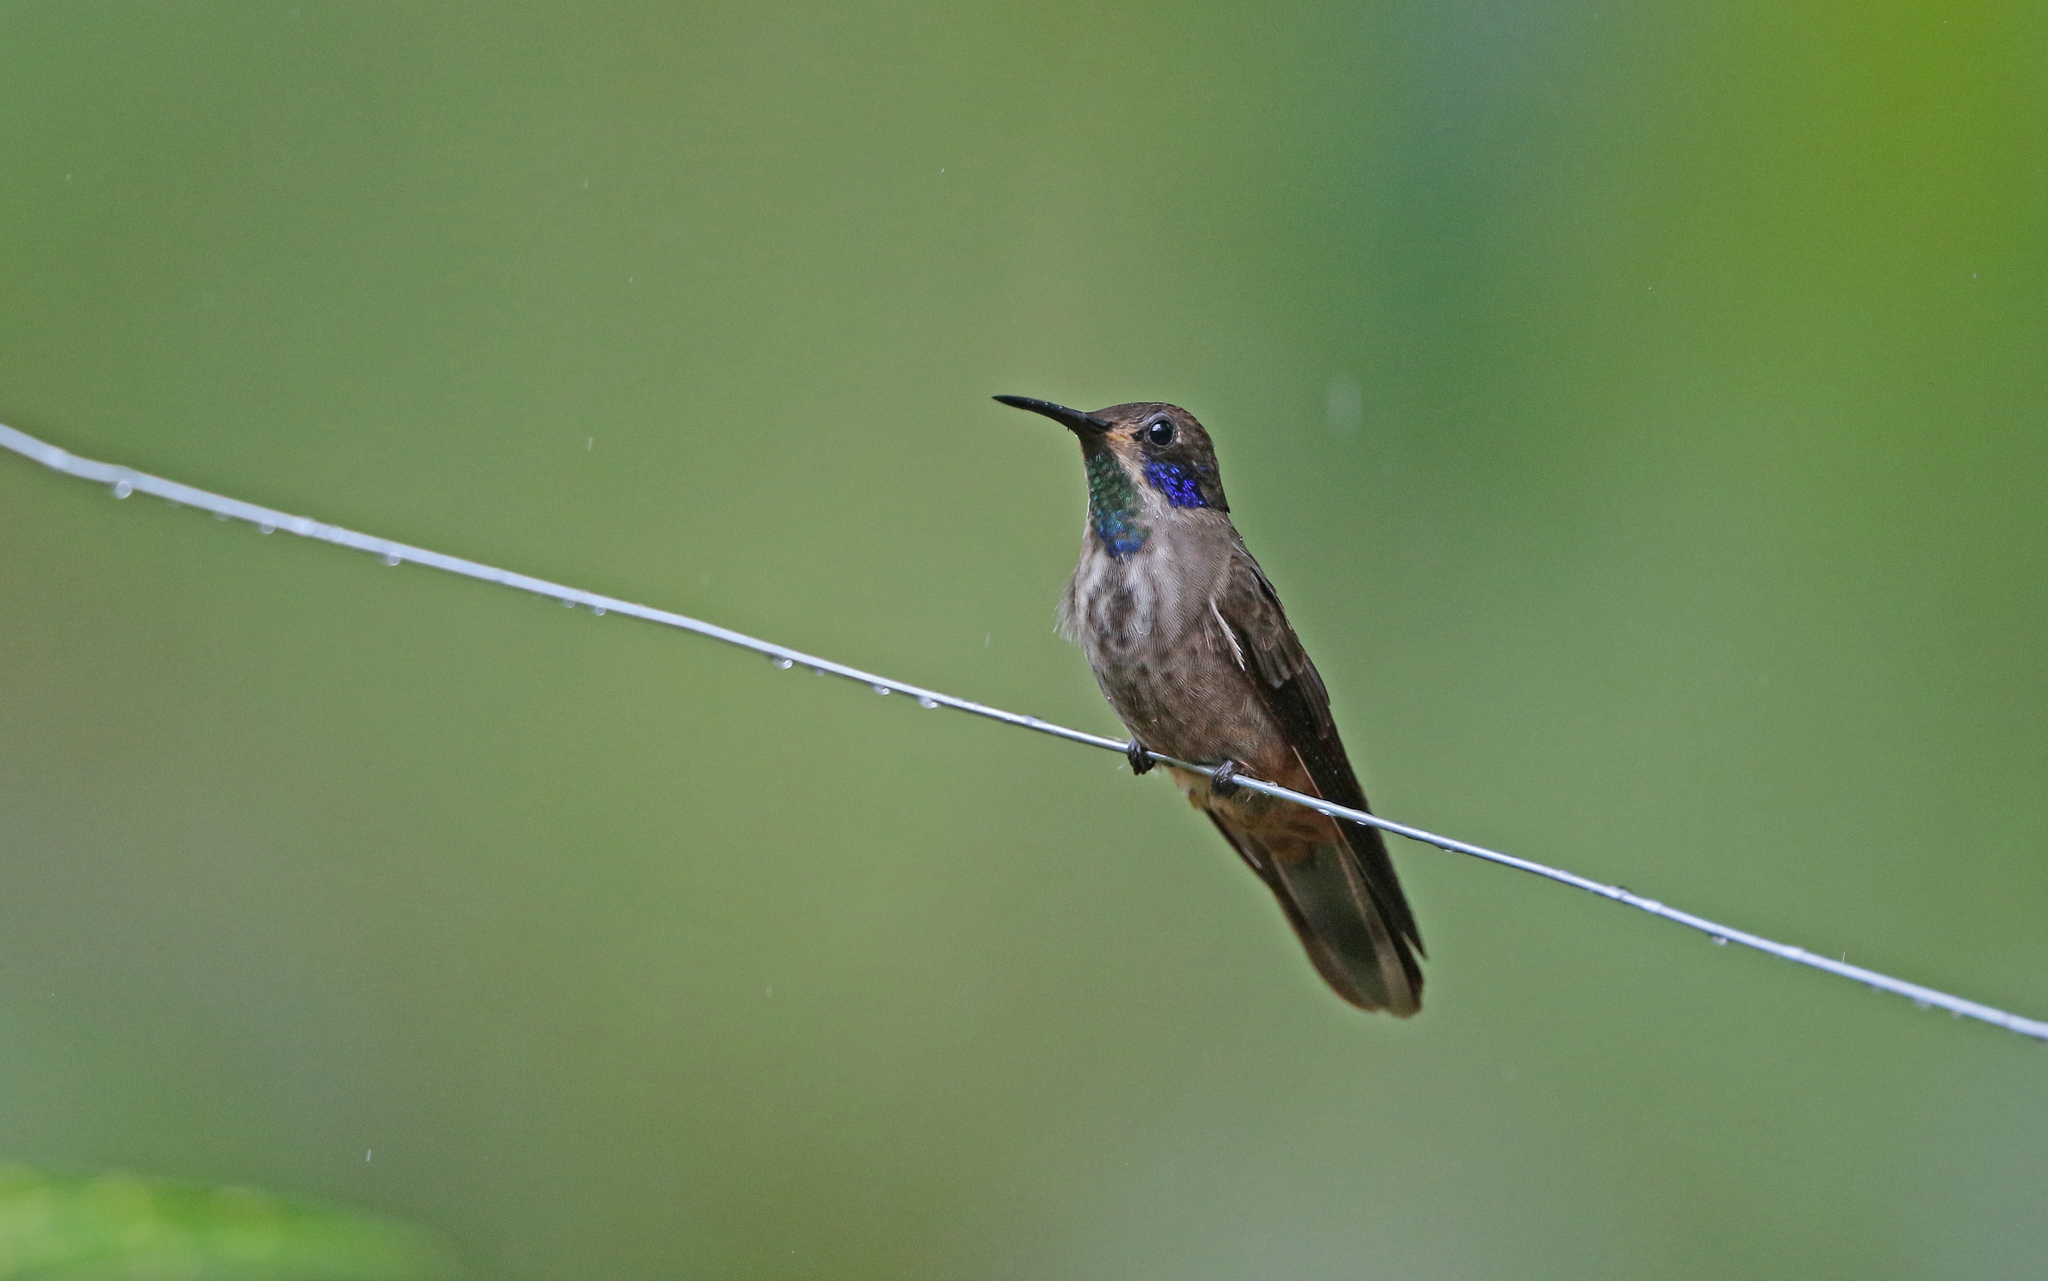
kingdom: Animalia
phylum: Chordata
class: Aves
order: Apodiformes
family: Trochilidae
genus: Colibri
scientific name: Colibri delphinae
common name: Brown violetear
